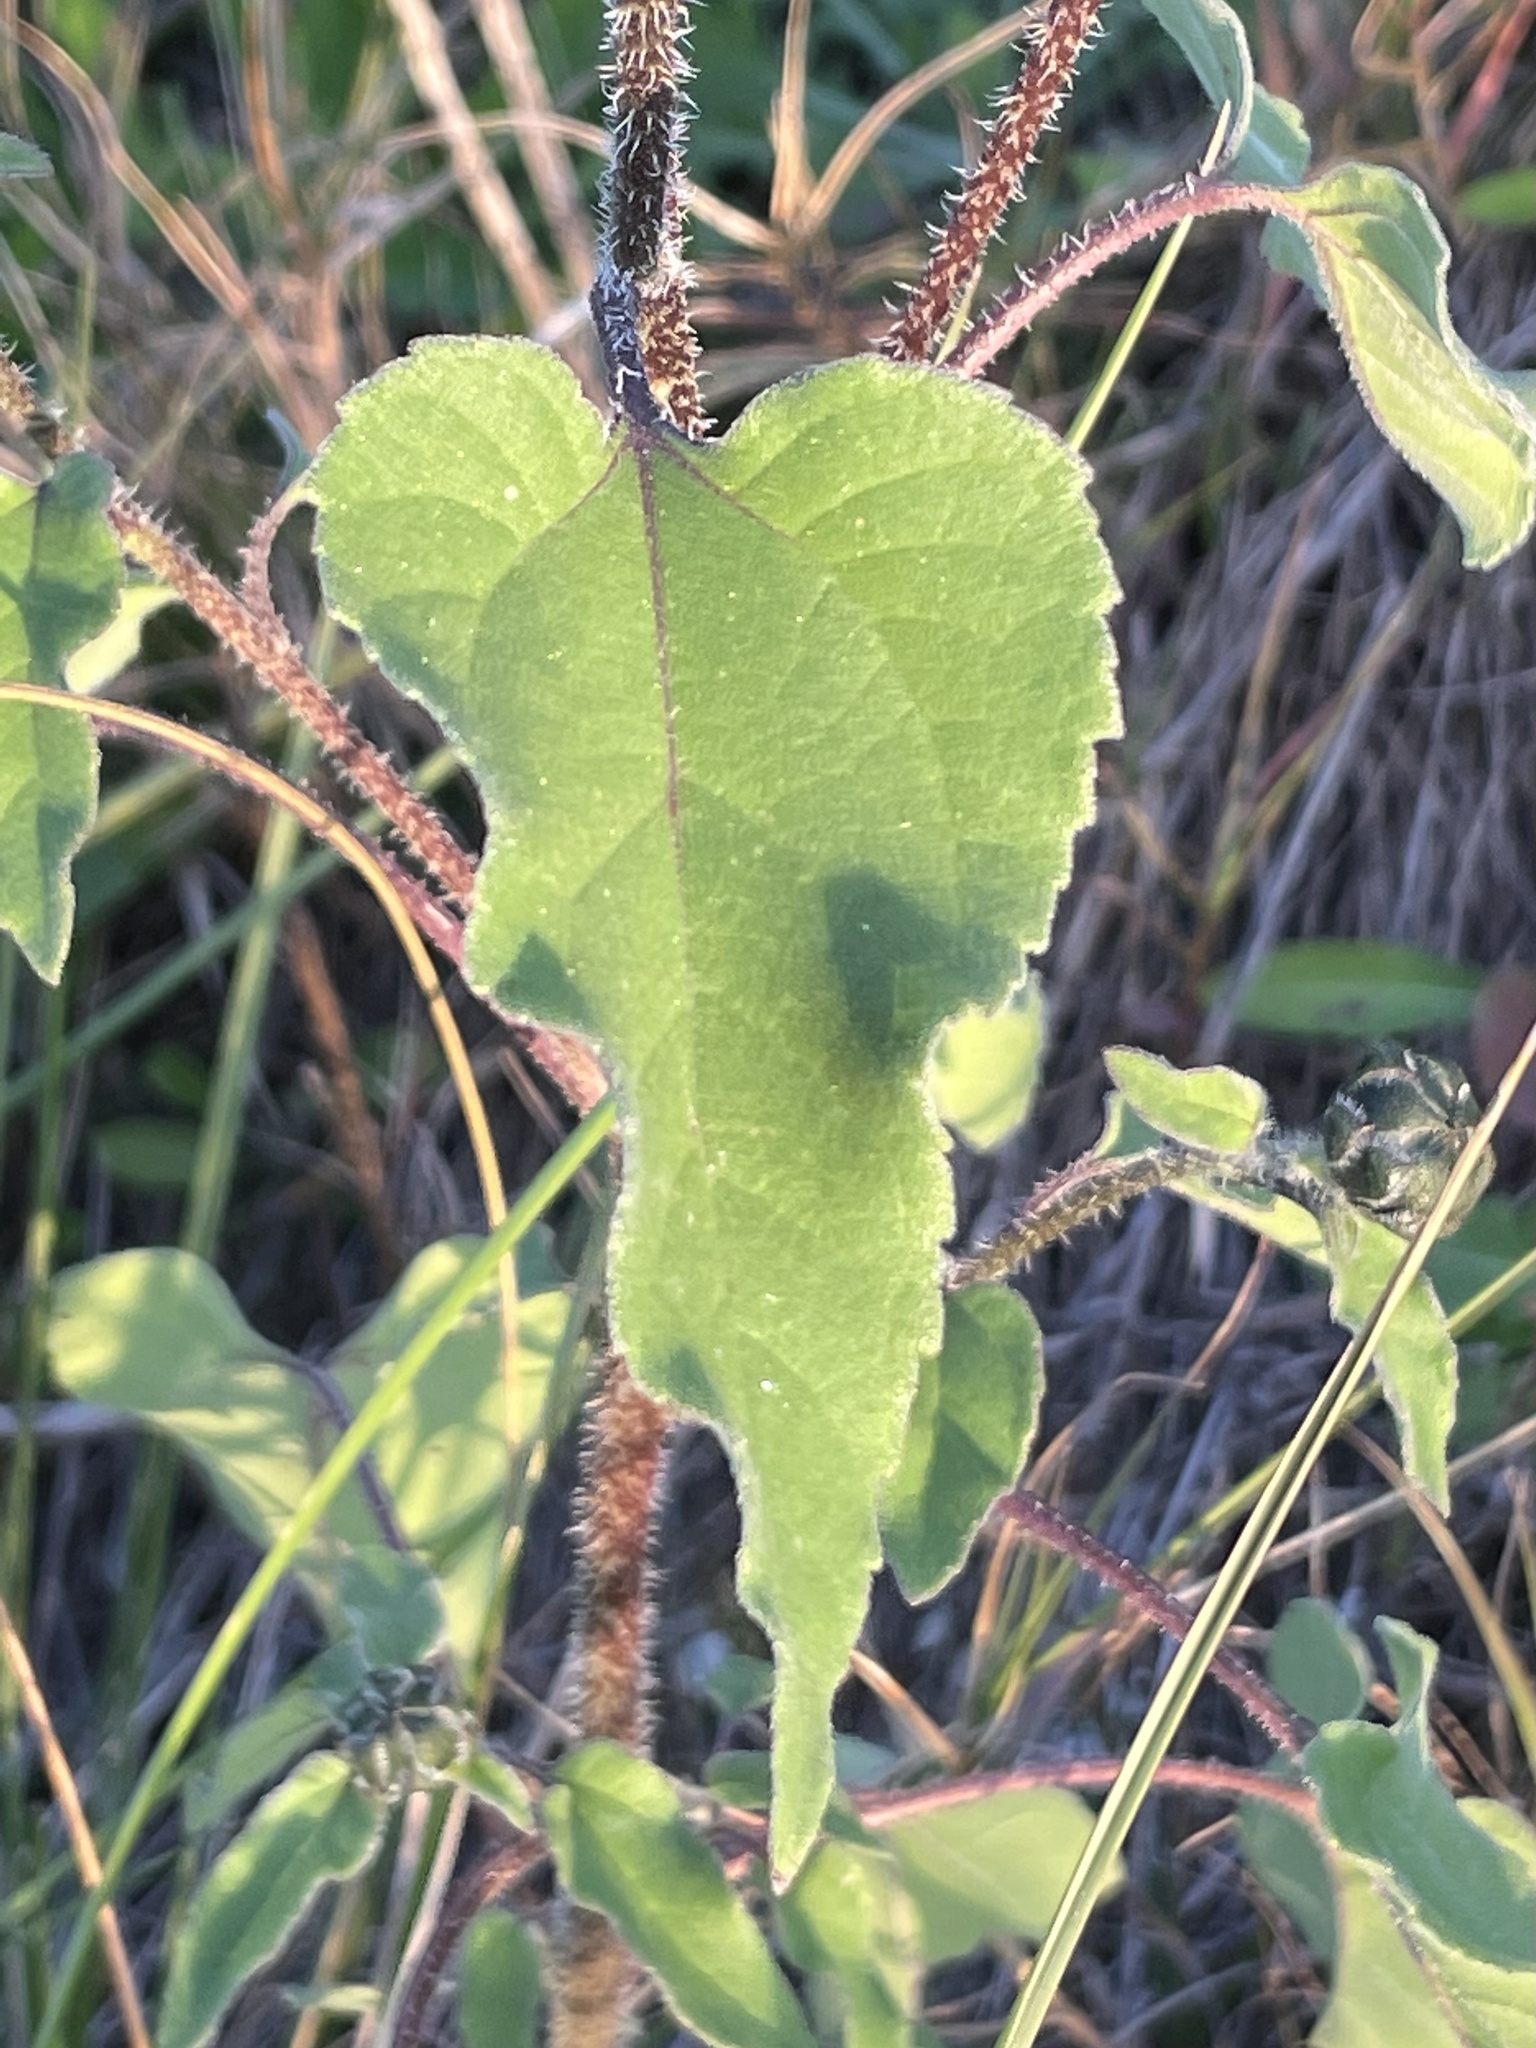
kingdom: Plantae
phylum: Tracheophyta
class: Magnoliopsida
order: Asterales
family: Asteraceae
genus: Helianthus
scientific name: Helianthus annuus
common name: Sunflower
